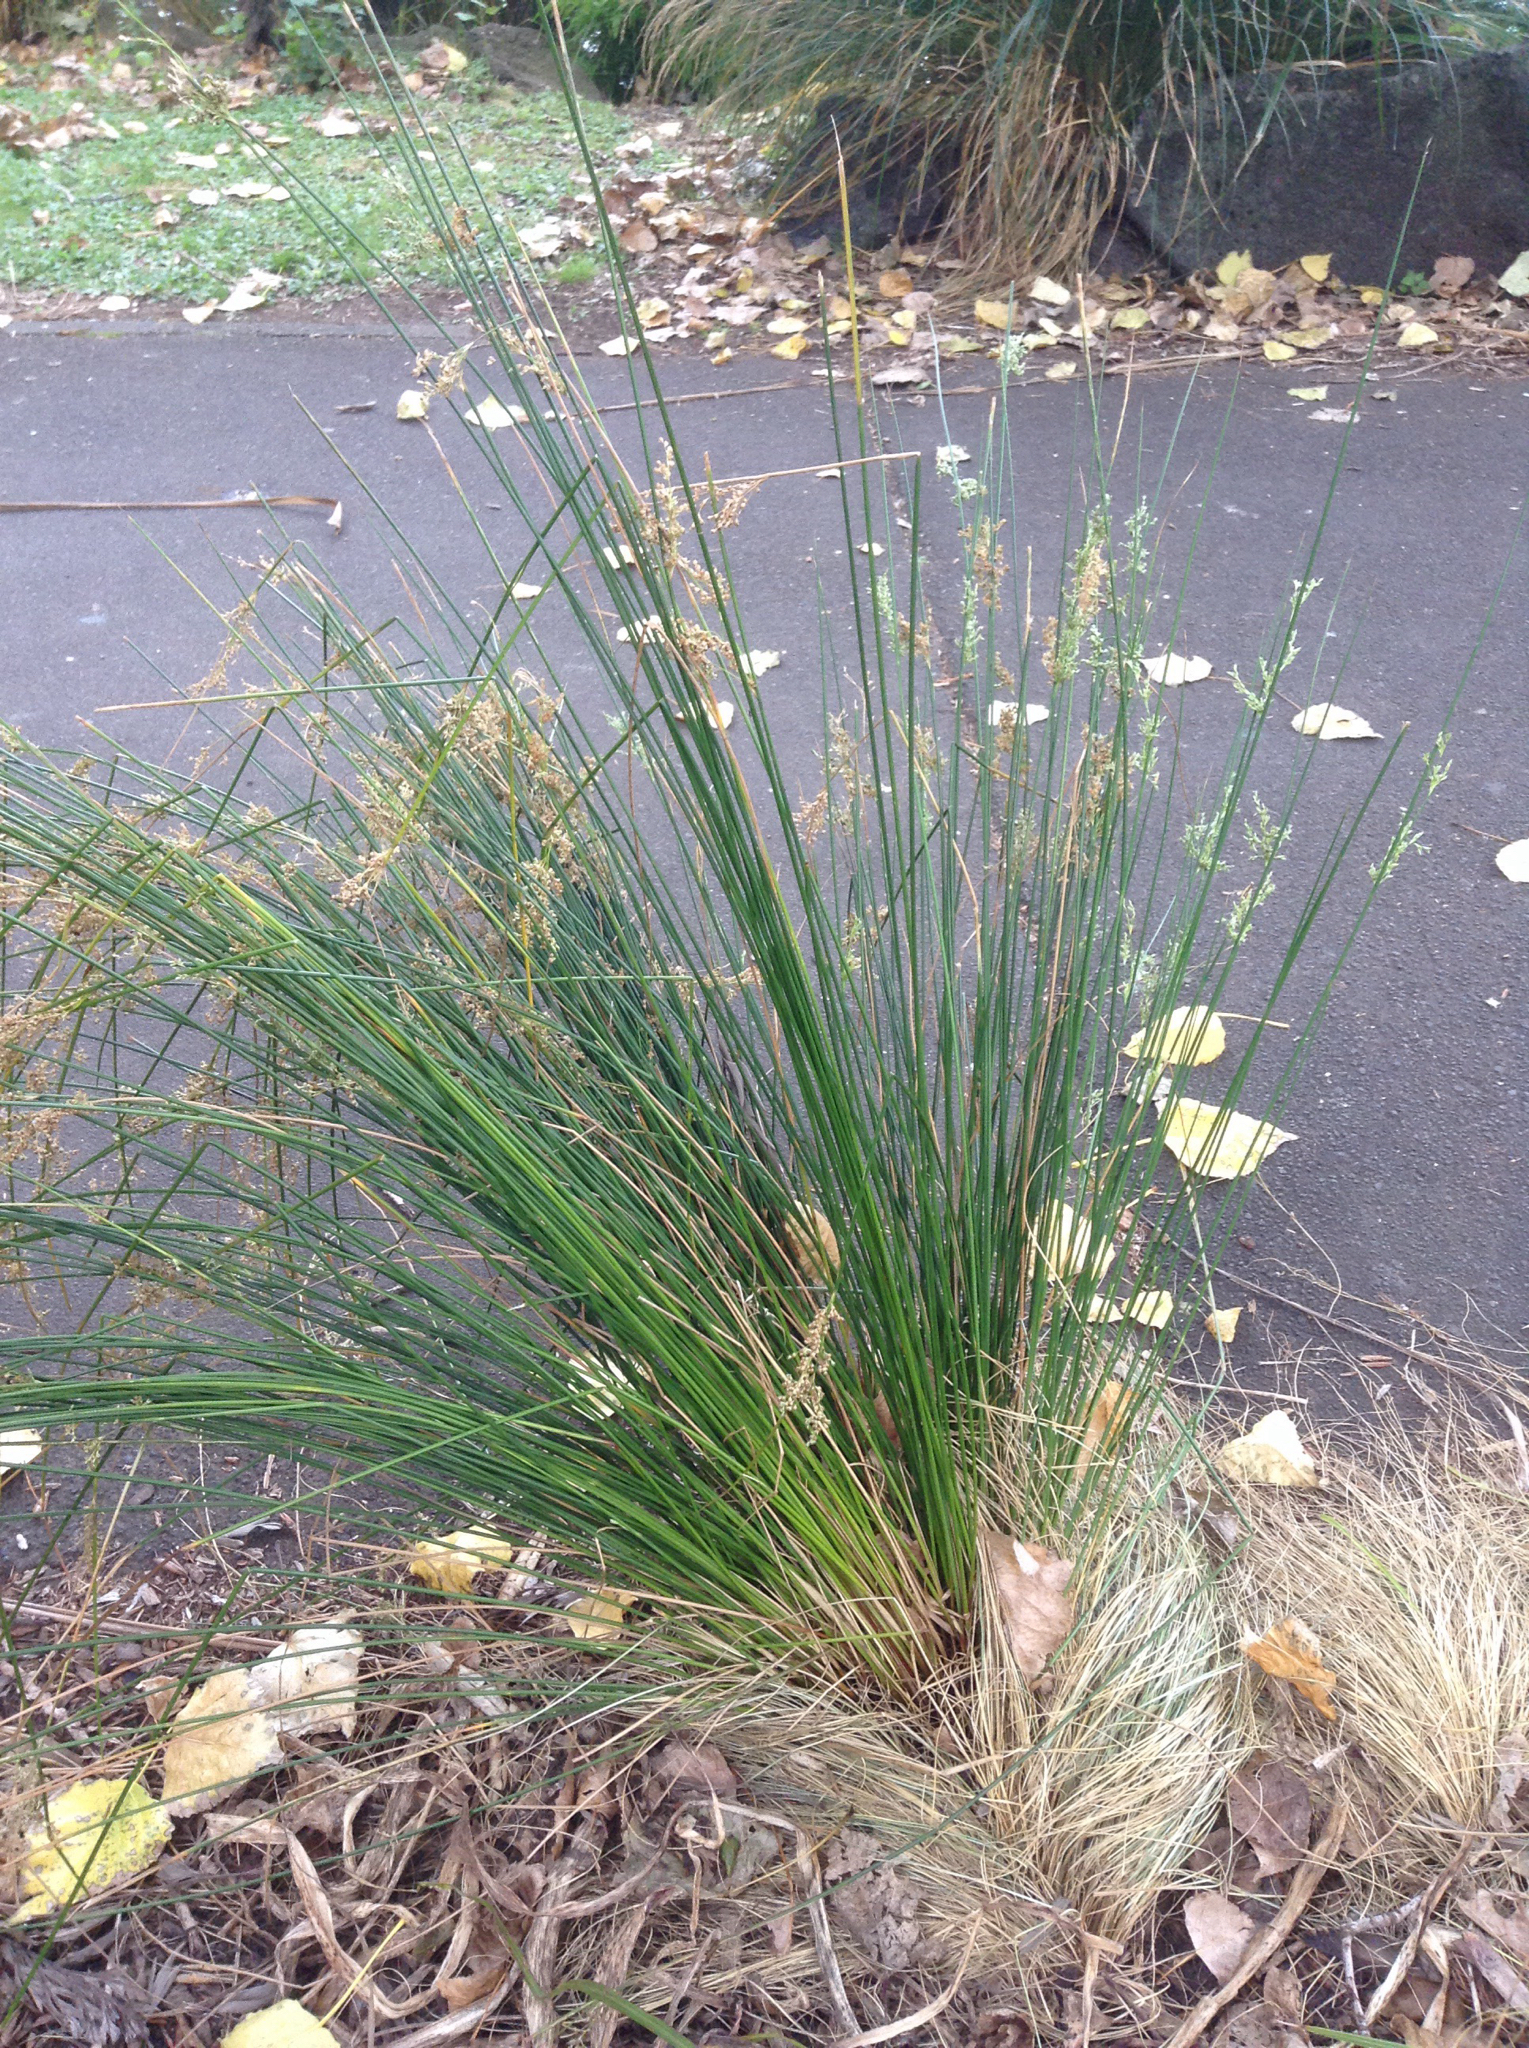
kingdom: Plantae
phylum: Tracheophyta
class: Liliopsida
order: Poales
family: Juncaceae
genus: Juncus
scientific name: Juncus sarophorus
